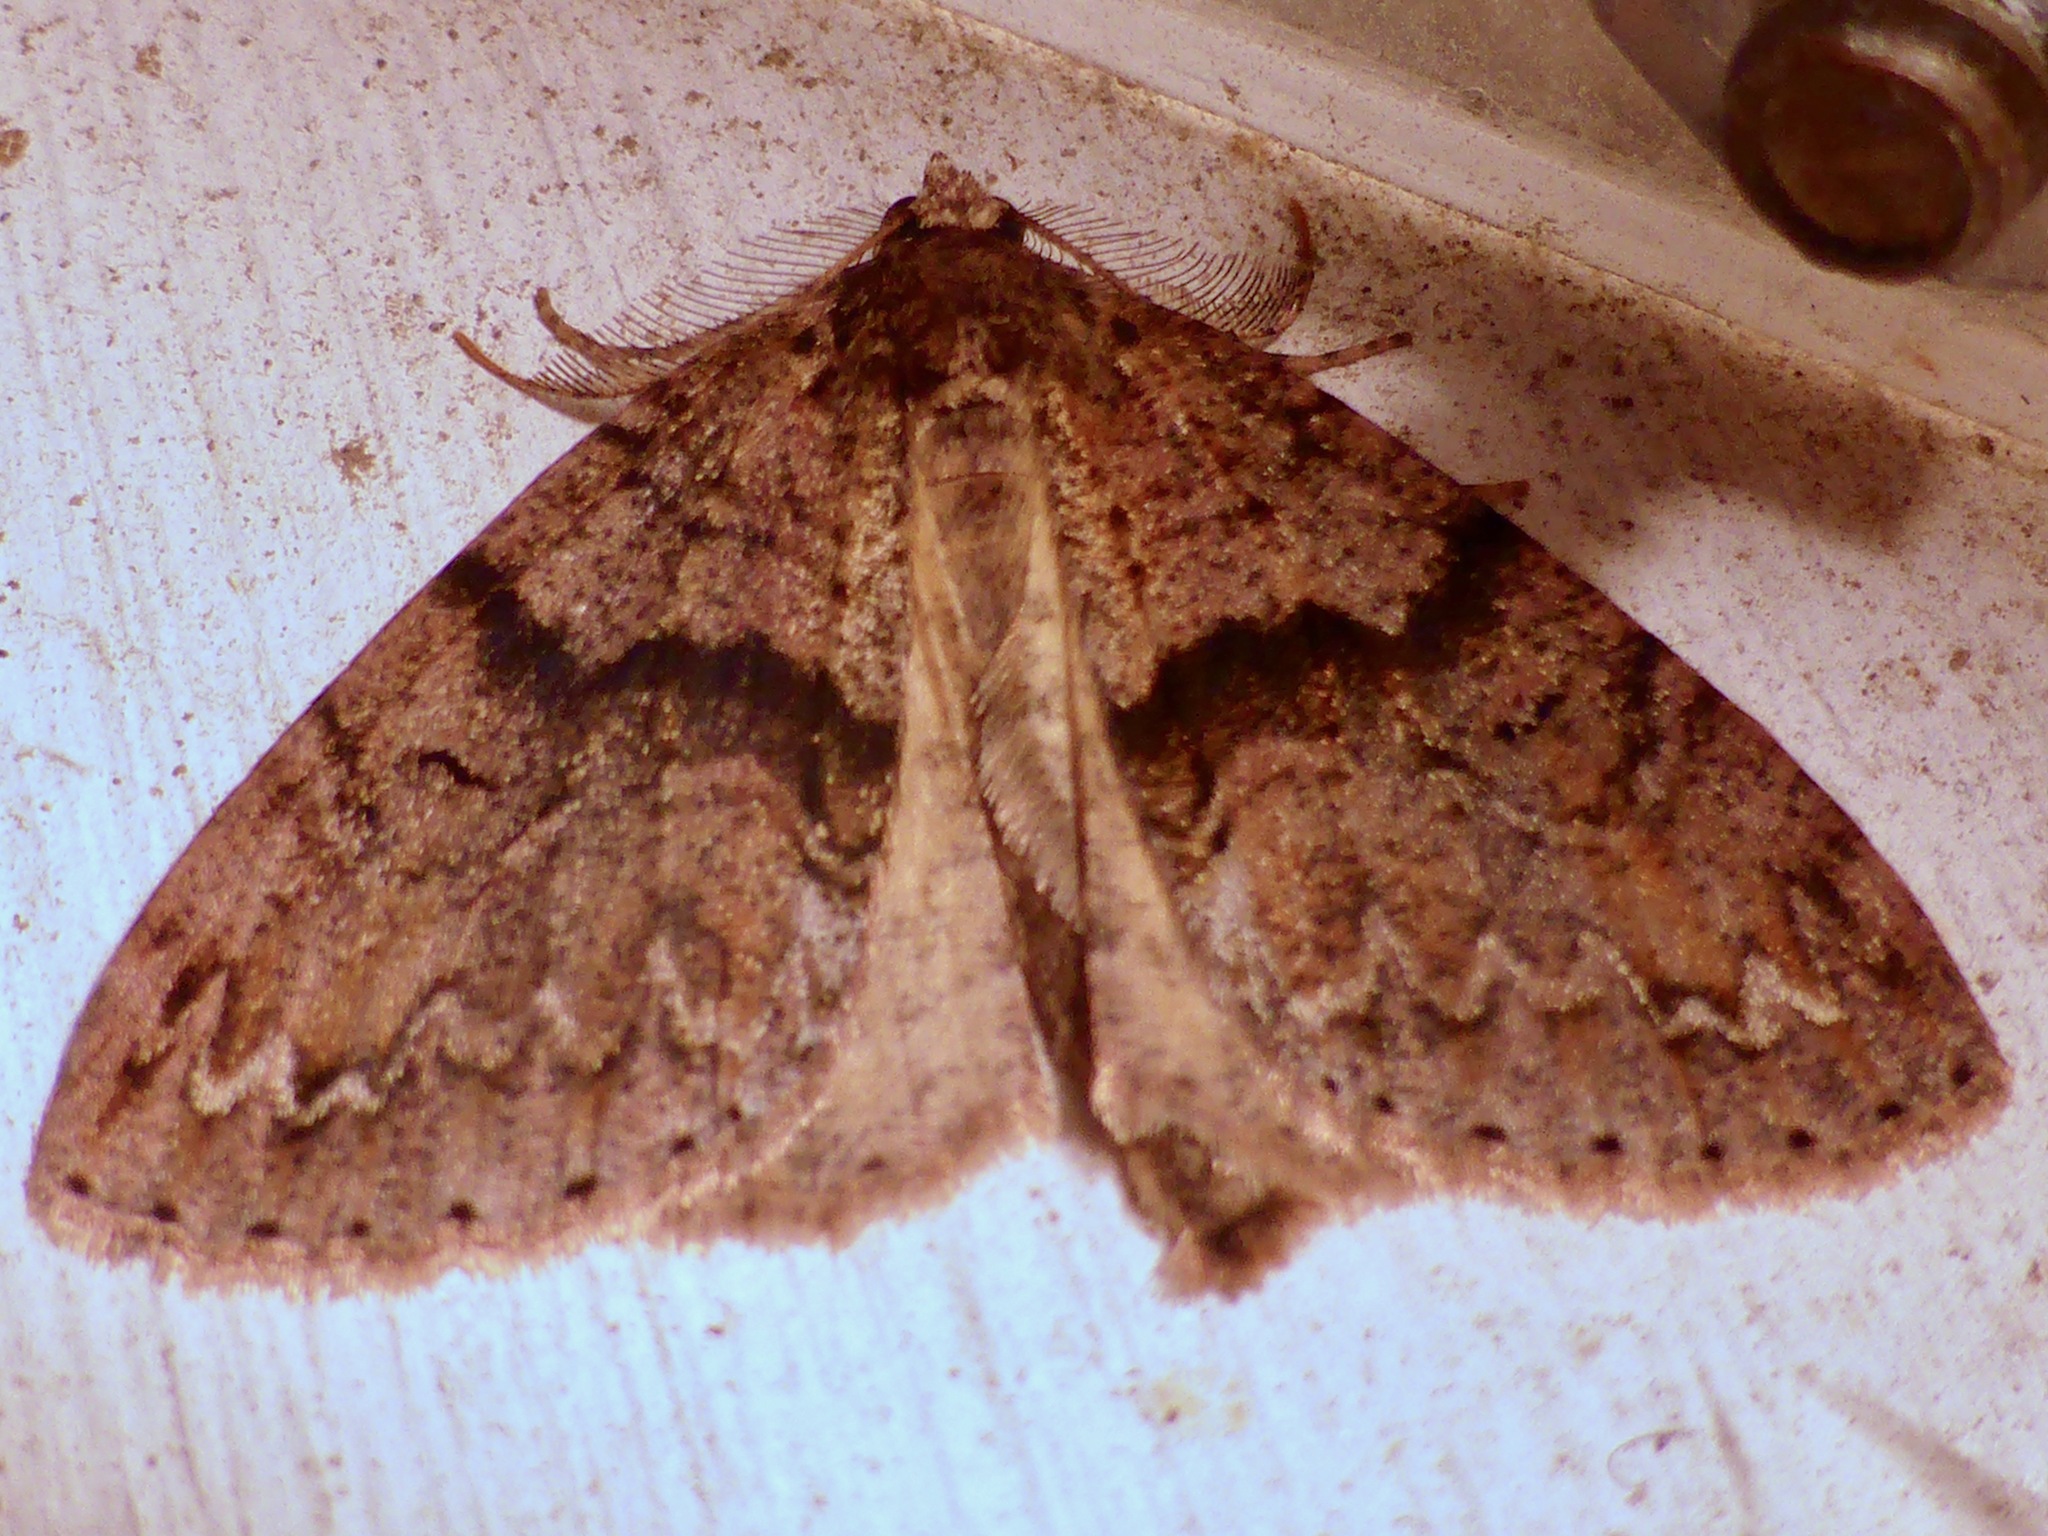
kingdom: Animalia
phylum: Arthropoda
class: Insecta
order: Lepidoptera
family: Geometridae
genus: Pseudocoremia
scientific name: Pseudocoremia suavis
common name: Common forest looper
